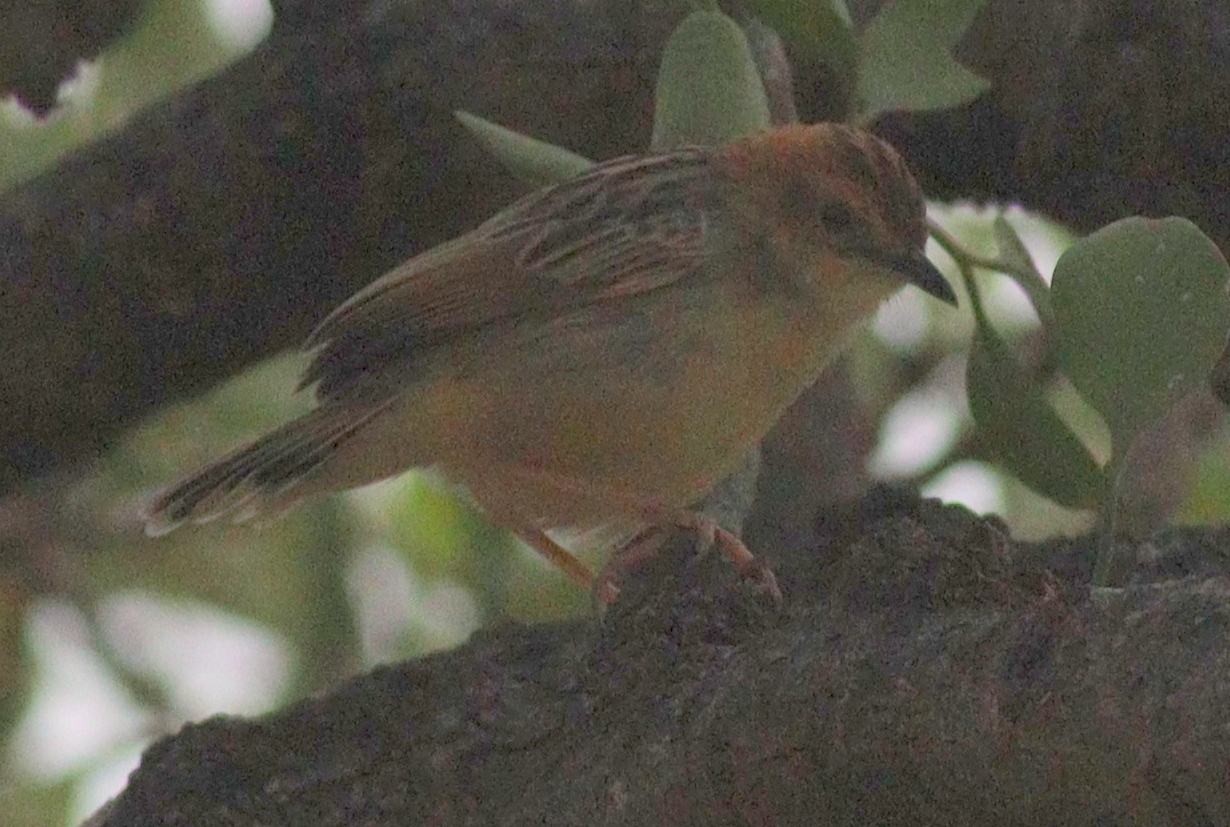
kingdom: Animalia
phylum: Chordata
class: Aves
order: Passeriformes
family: Cisticolidae
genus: Cisticola
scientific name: Cisticola robustus
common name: Stout cisticola
